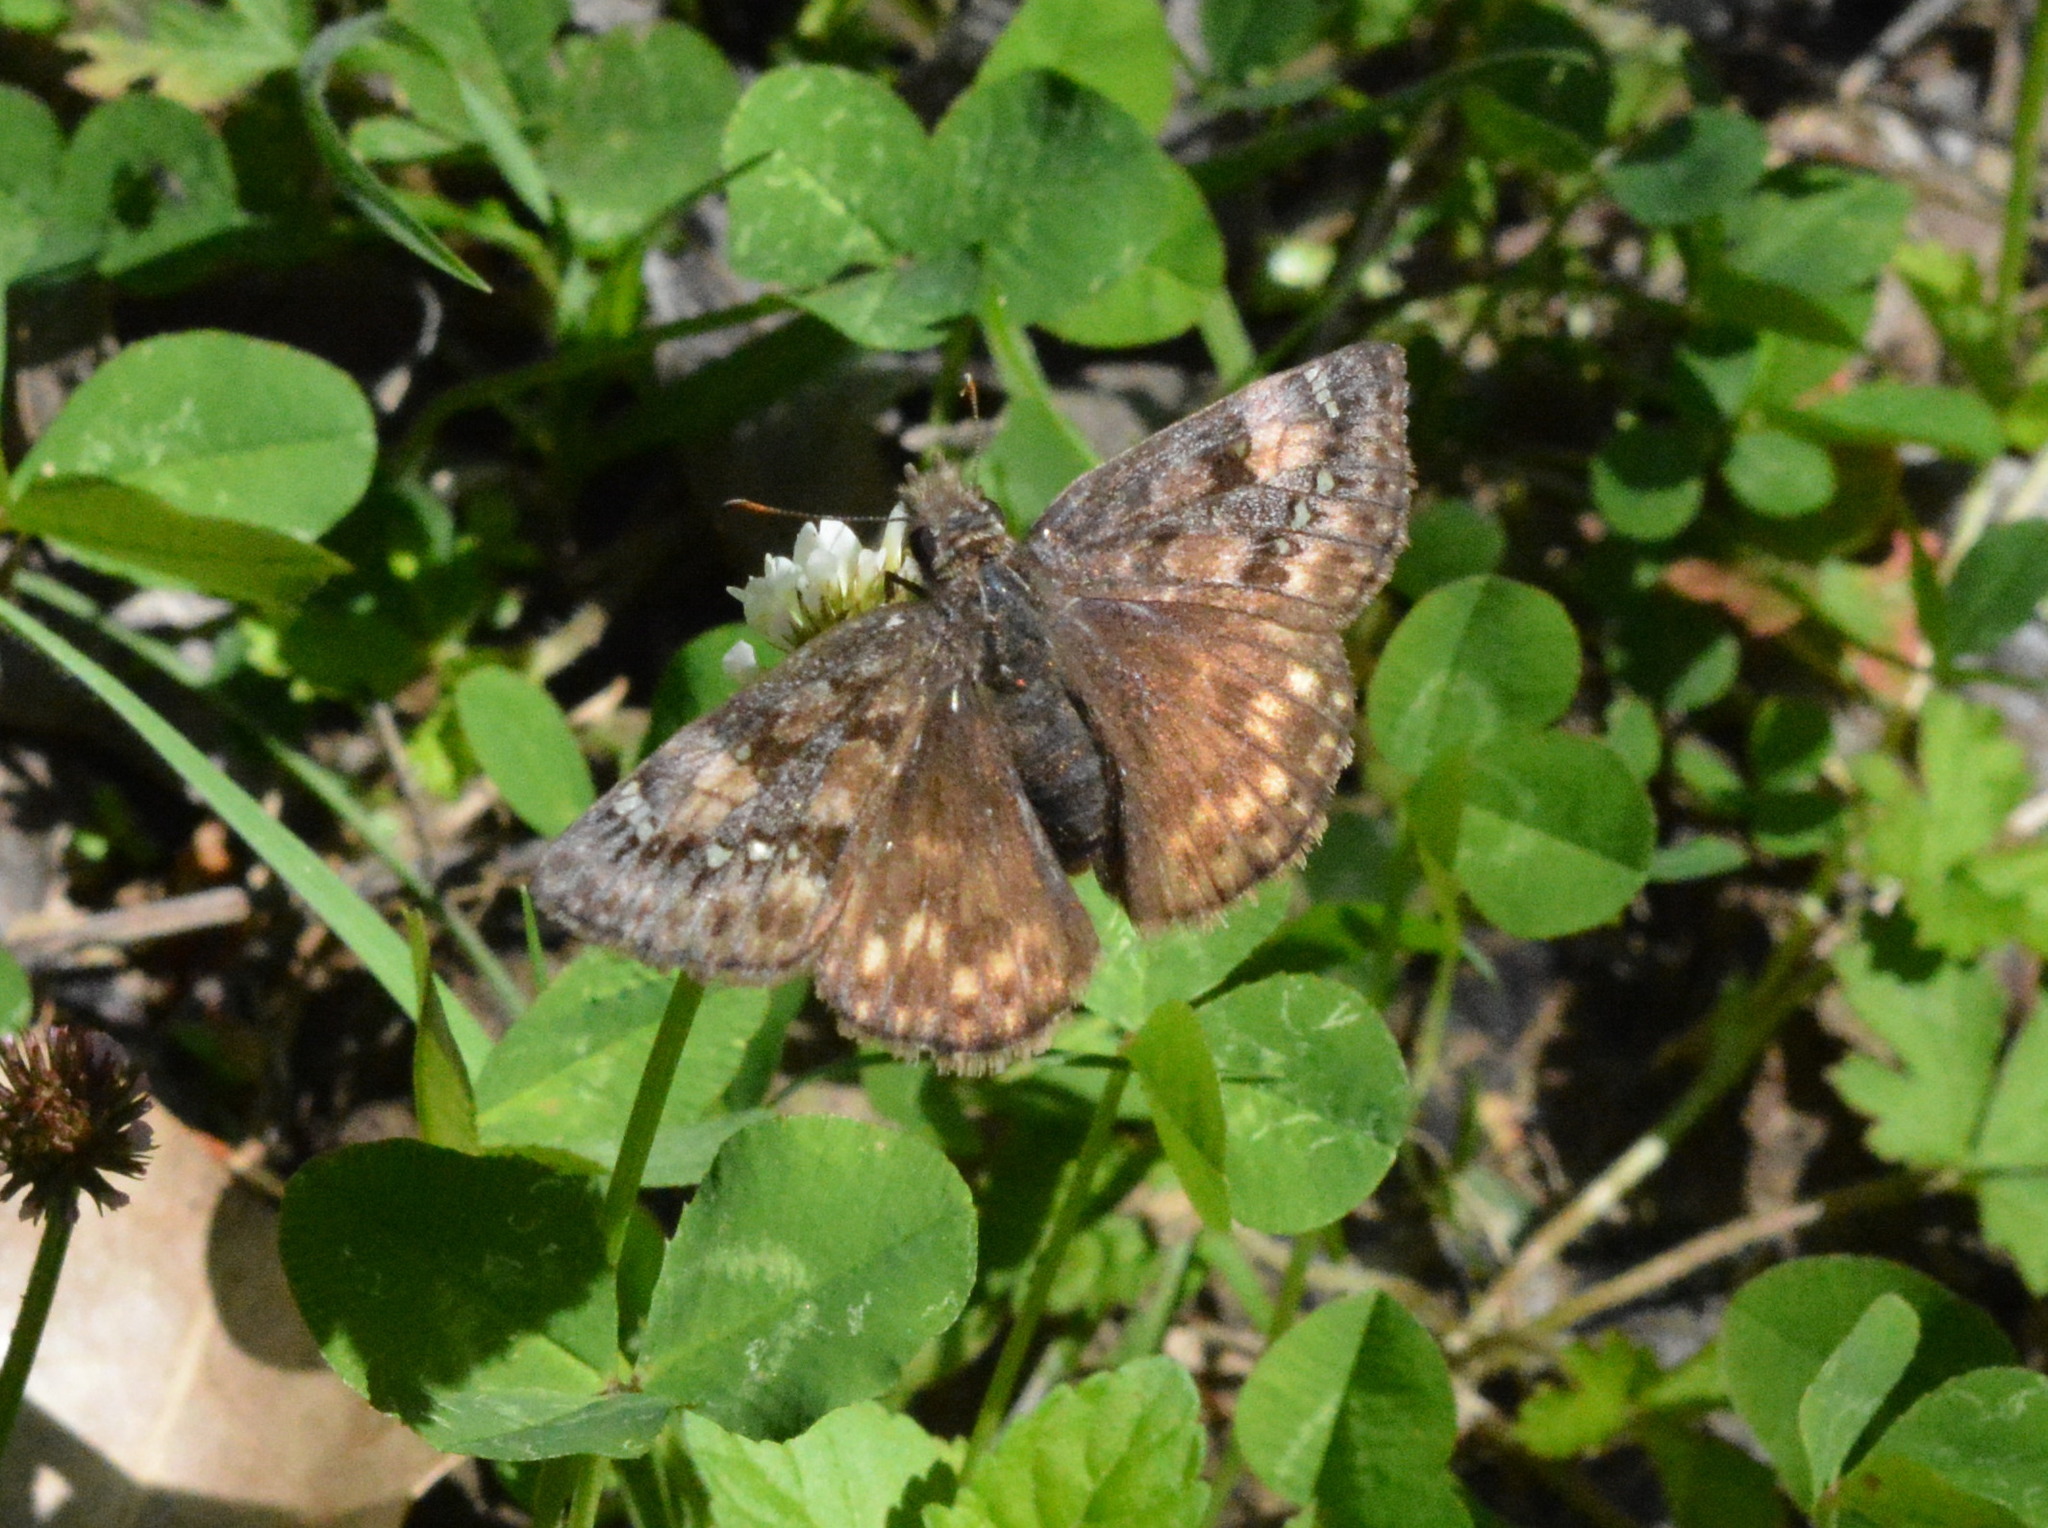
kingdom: Animalia
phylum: Arthropoda
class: Insecta
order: Lepidoptera
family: Hesperiidae
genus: Erynnis
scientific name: Erynnis juvenalis
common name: Juvenal's duskywing
